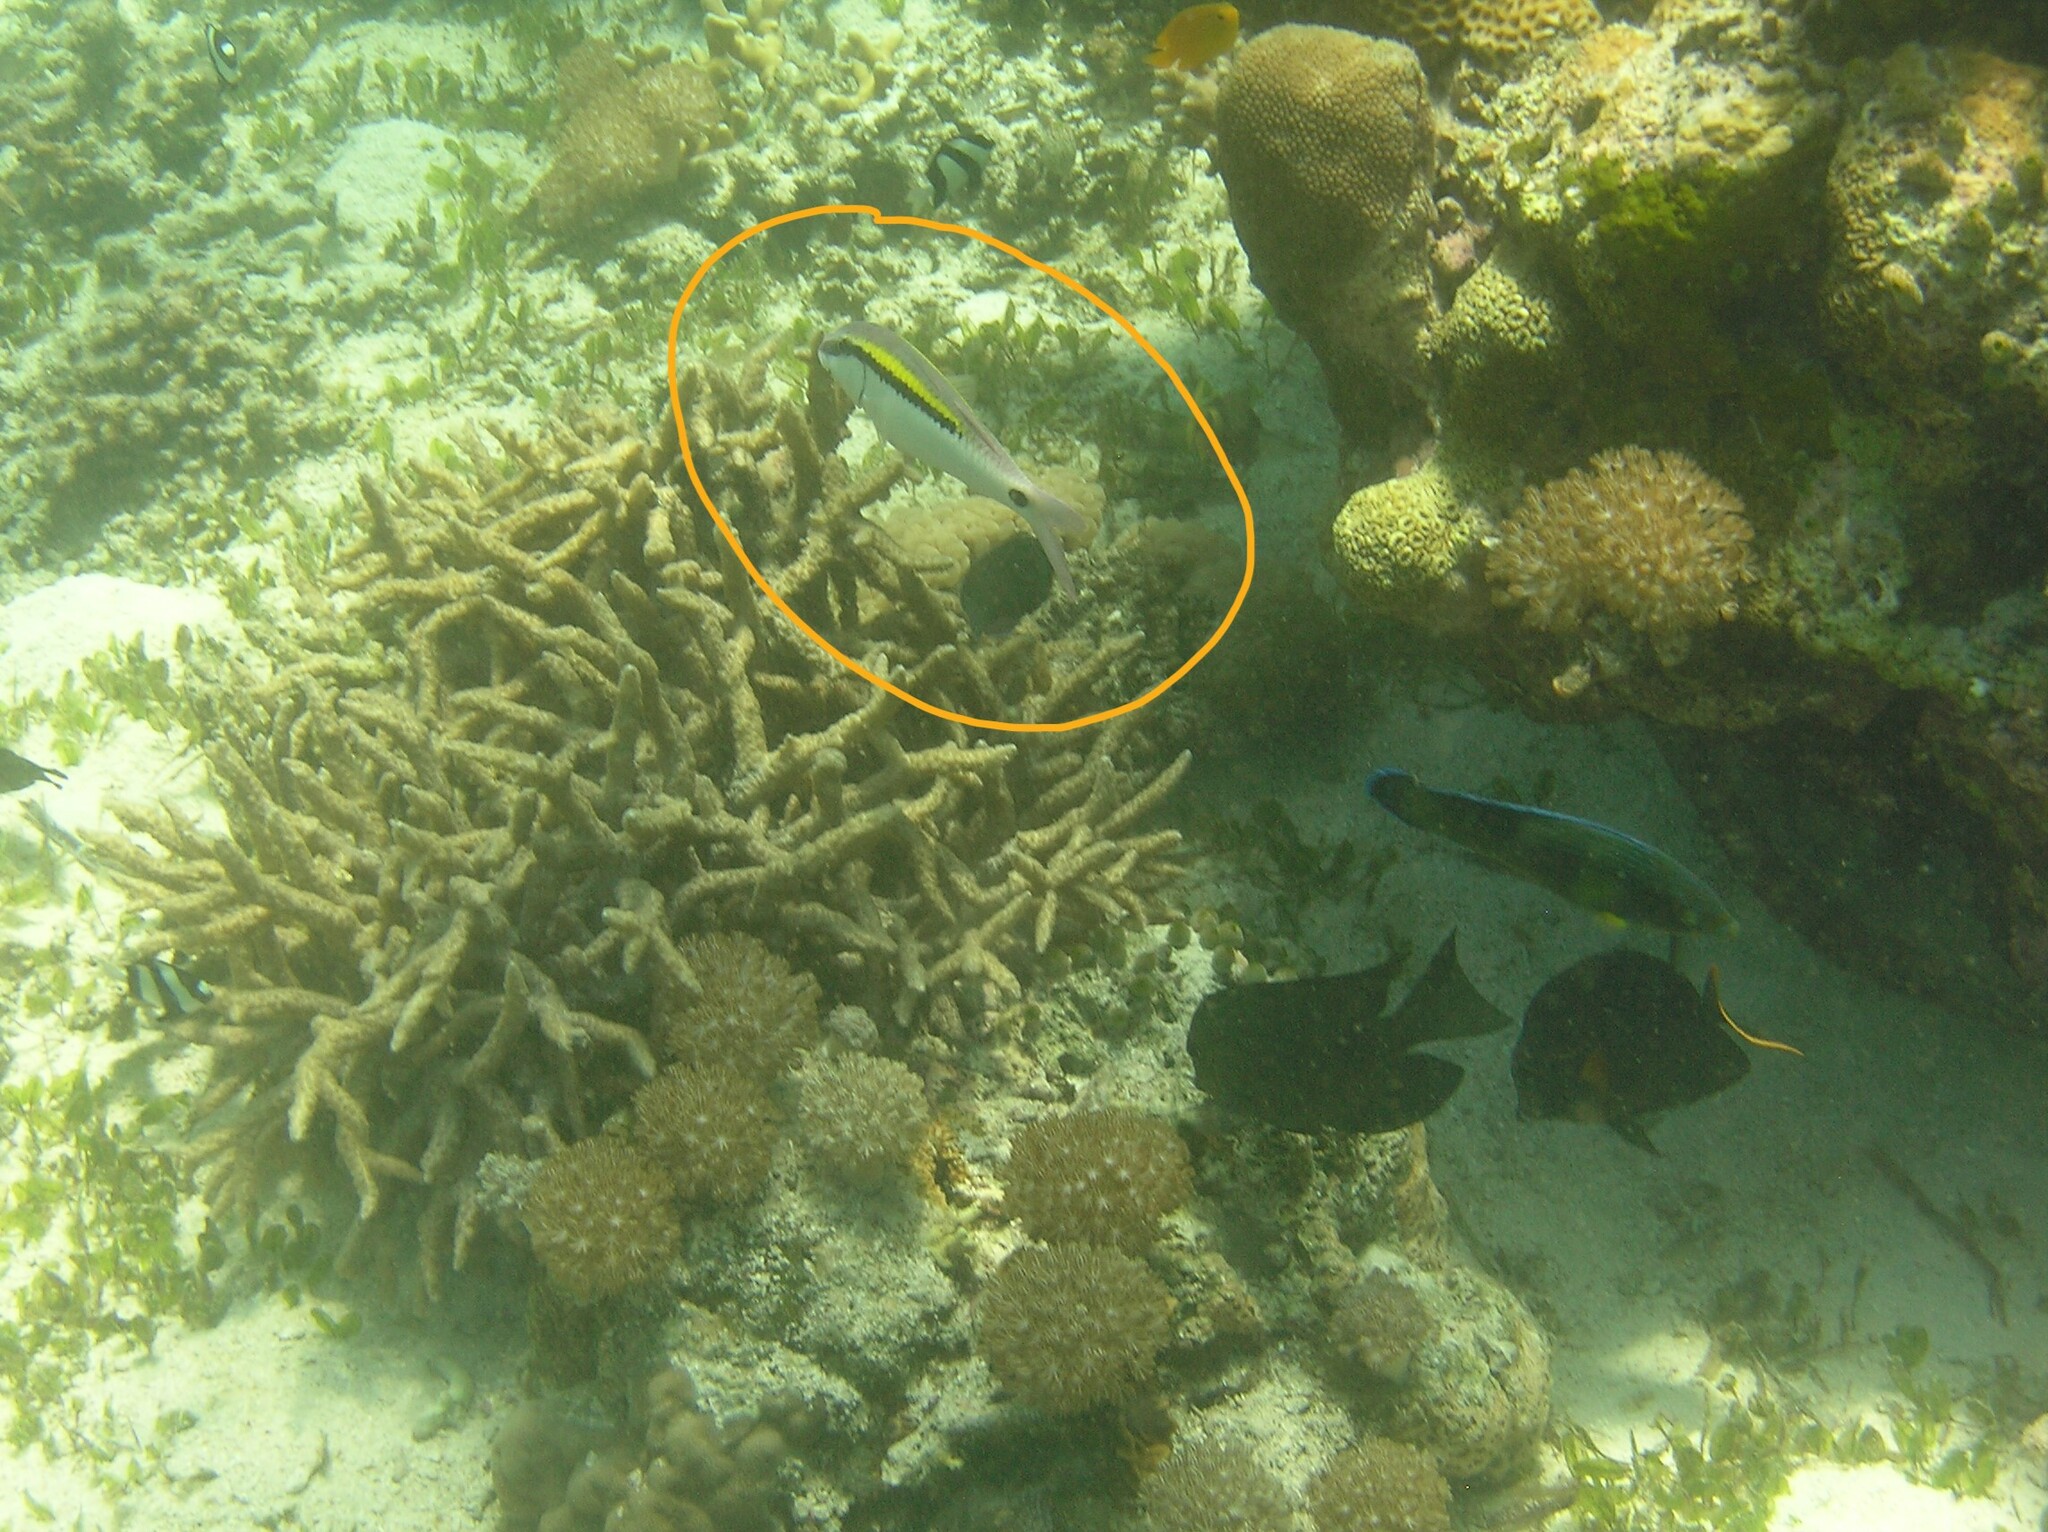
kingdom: Animalia
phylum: Chordata
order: Perciformes
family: Mullidae
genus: Parupeneus
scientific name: Parupeneus barberinus
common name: Dash-and-dot goatfish
